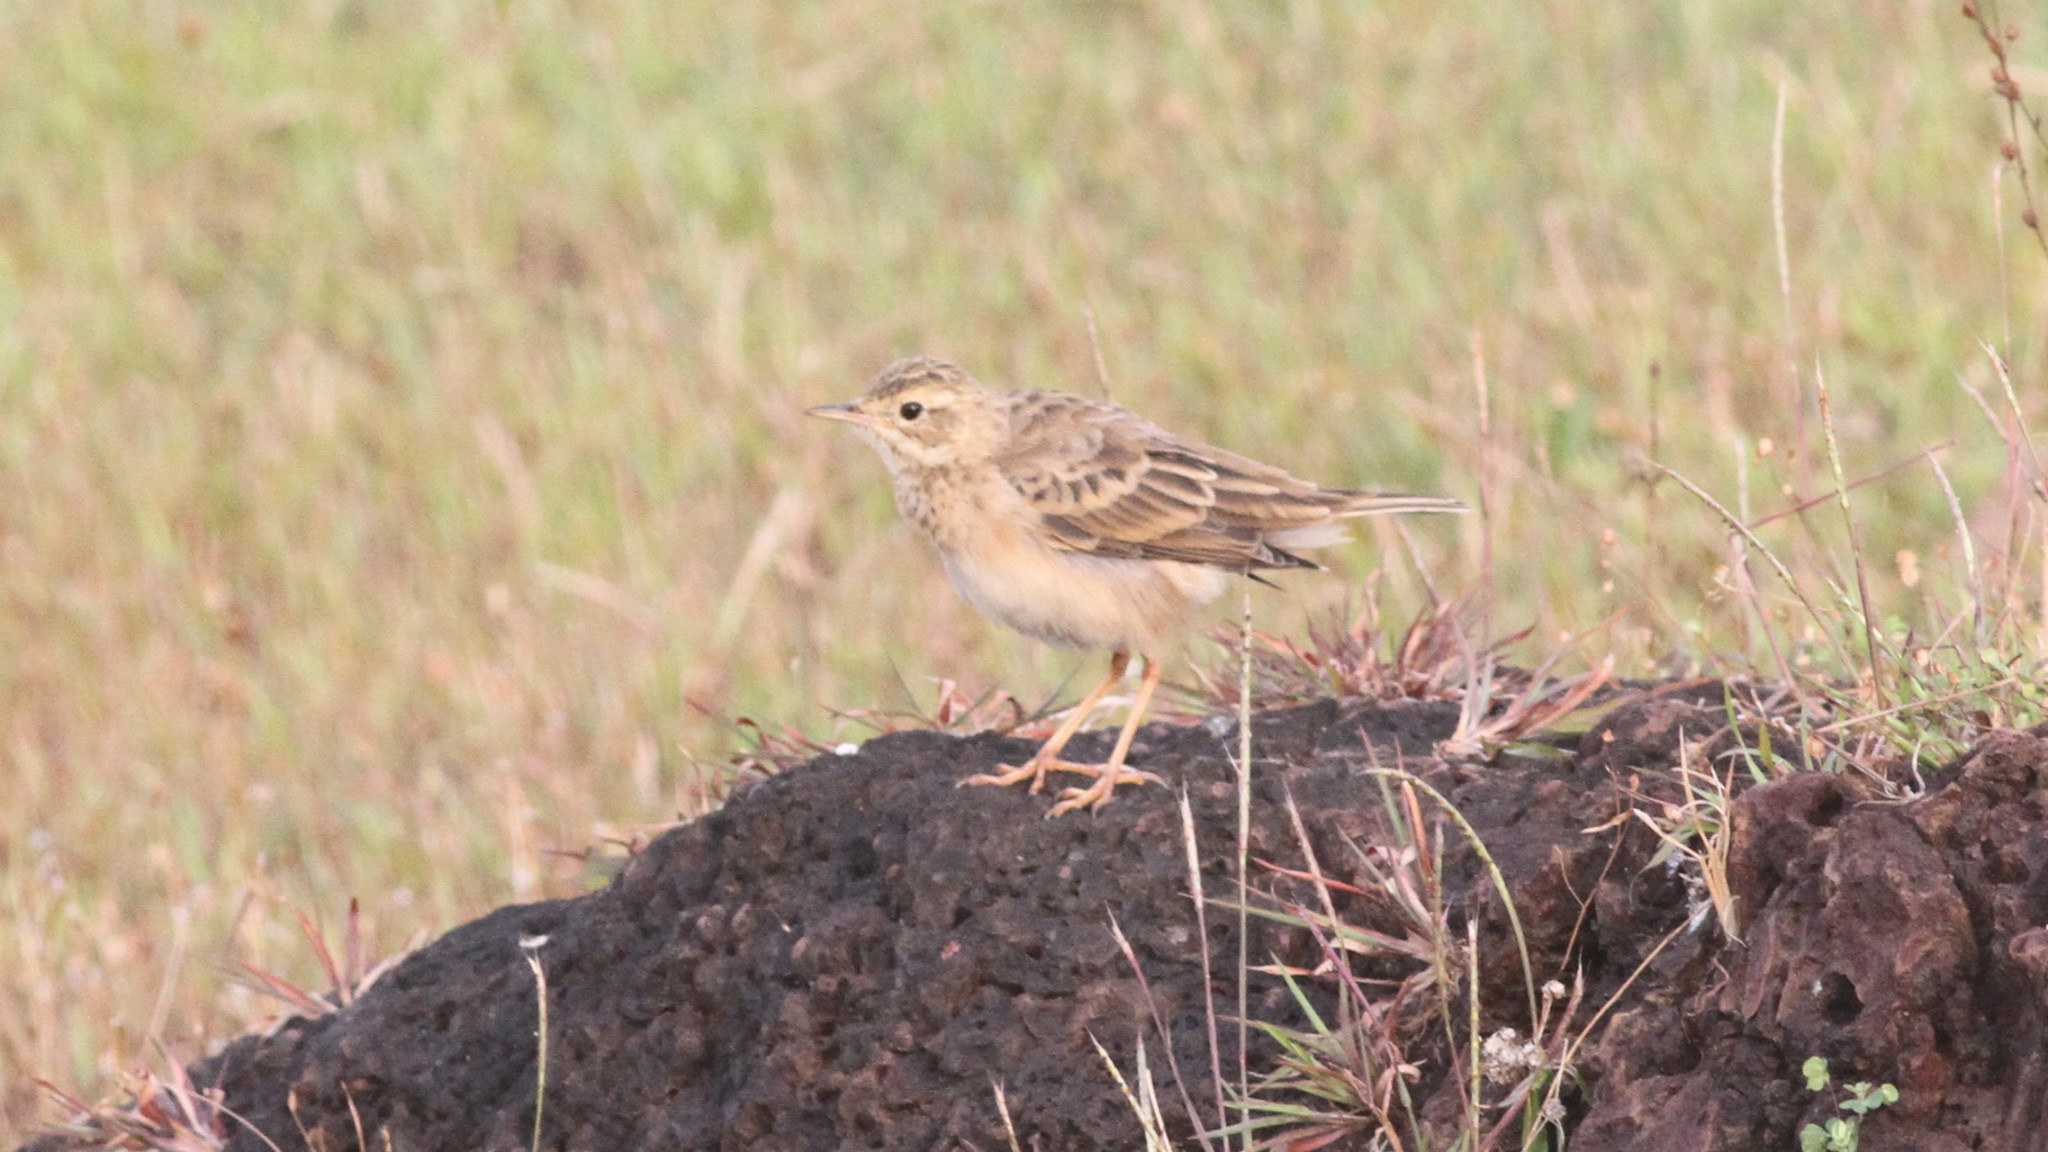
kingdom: Animalia
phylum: Chordata
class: Aves
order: Passeriformes
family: Motacillidae
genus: Anthus
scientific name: Anthus rufulus
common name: Paddyfield pipit
